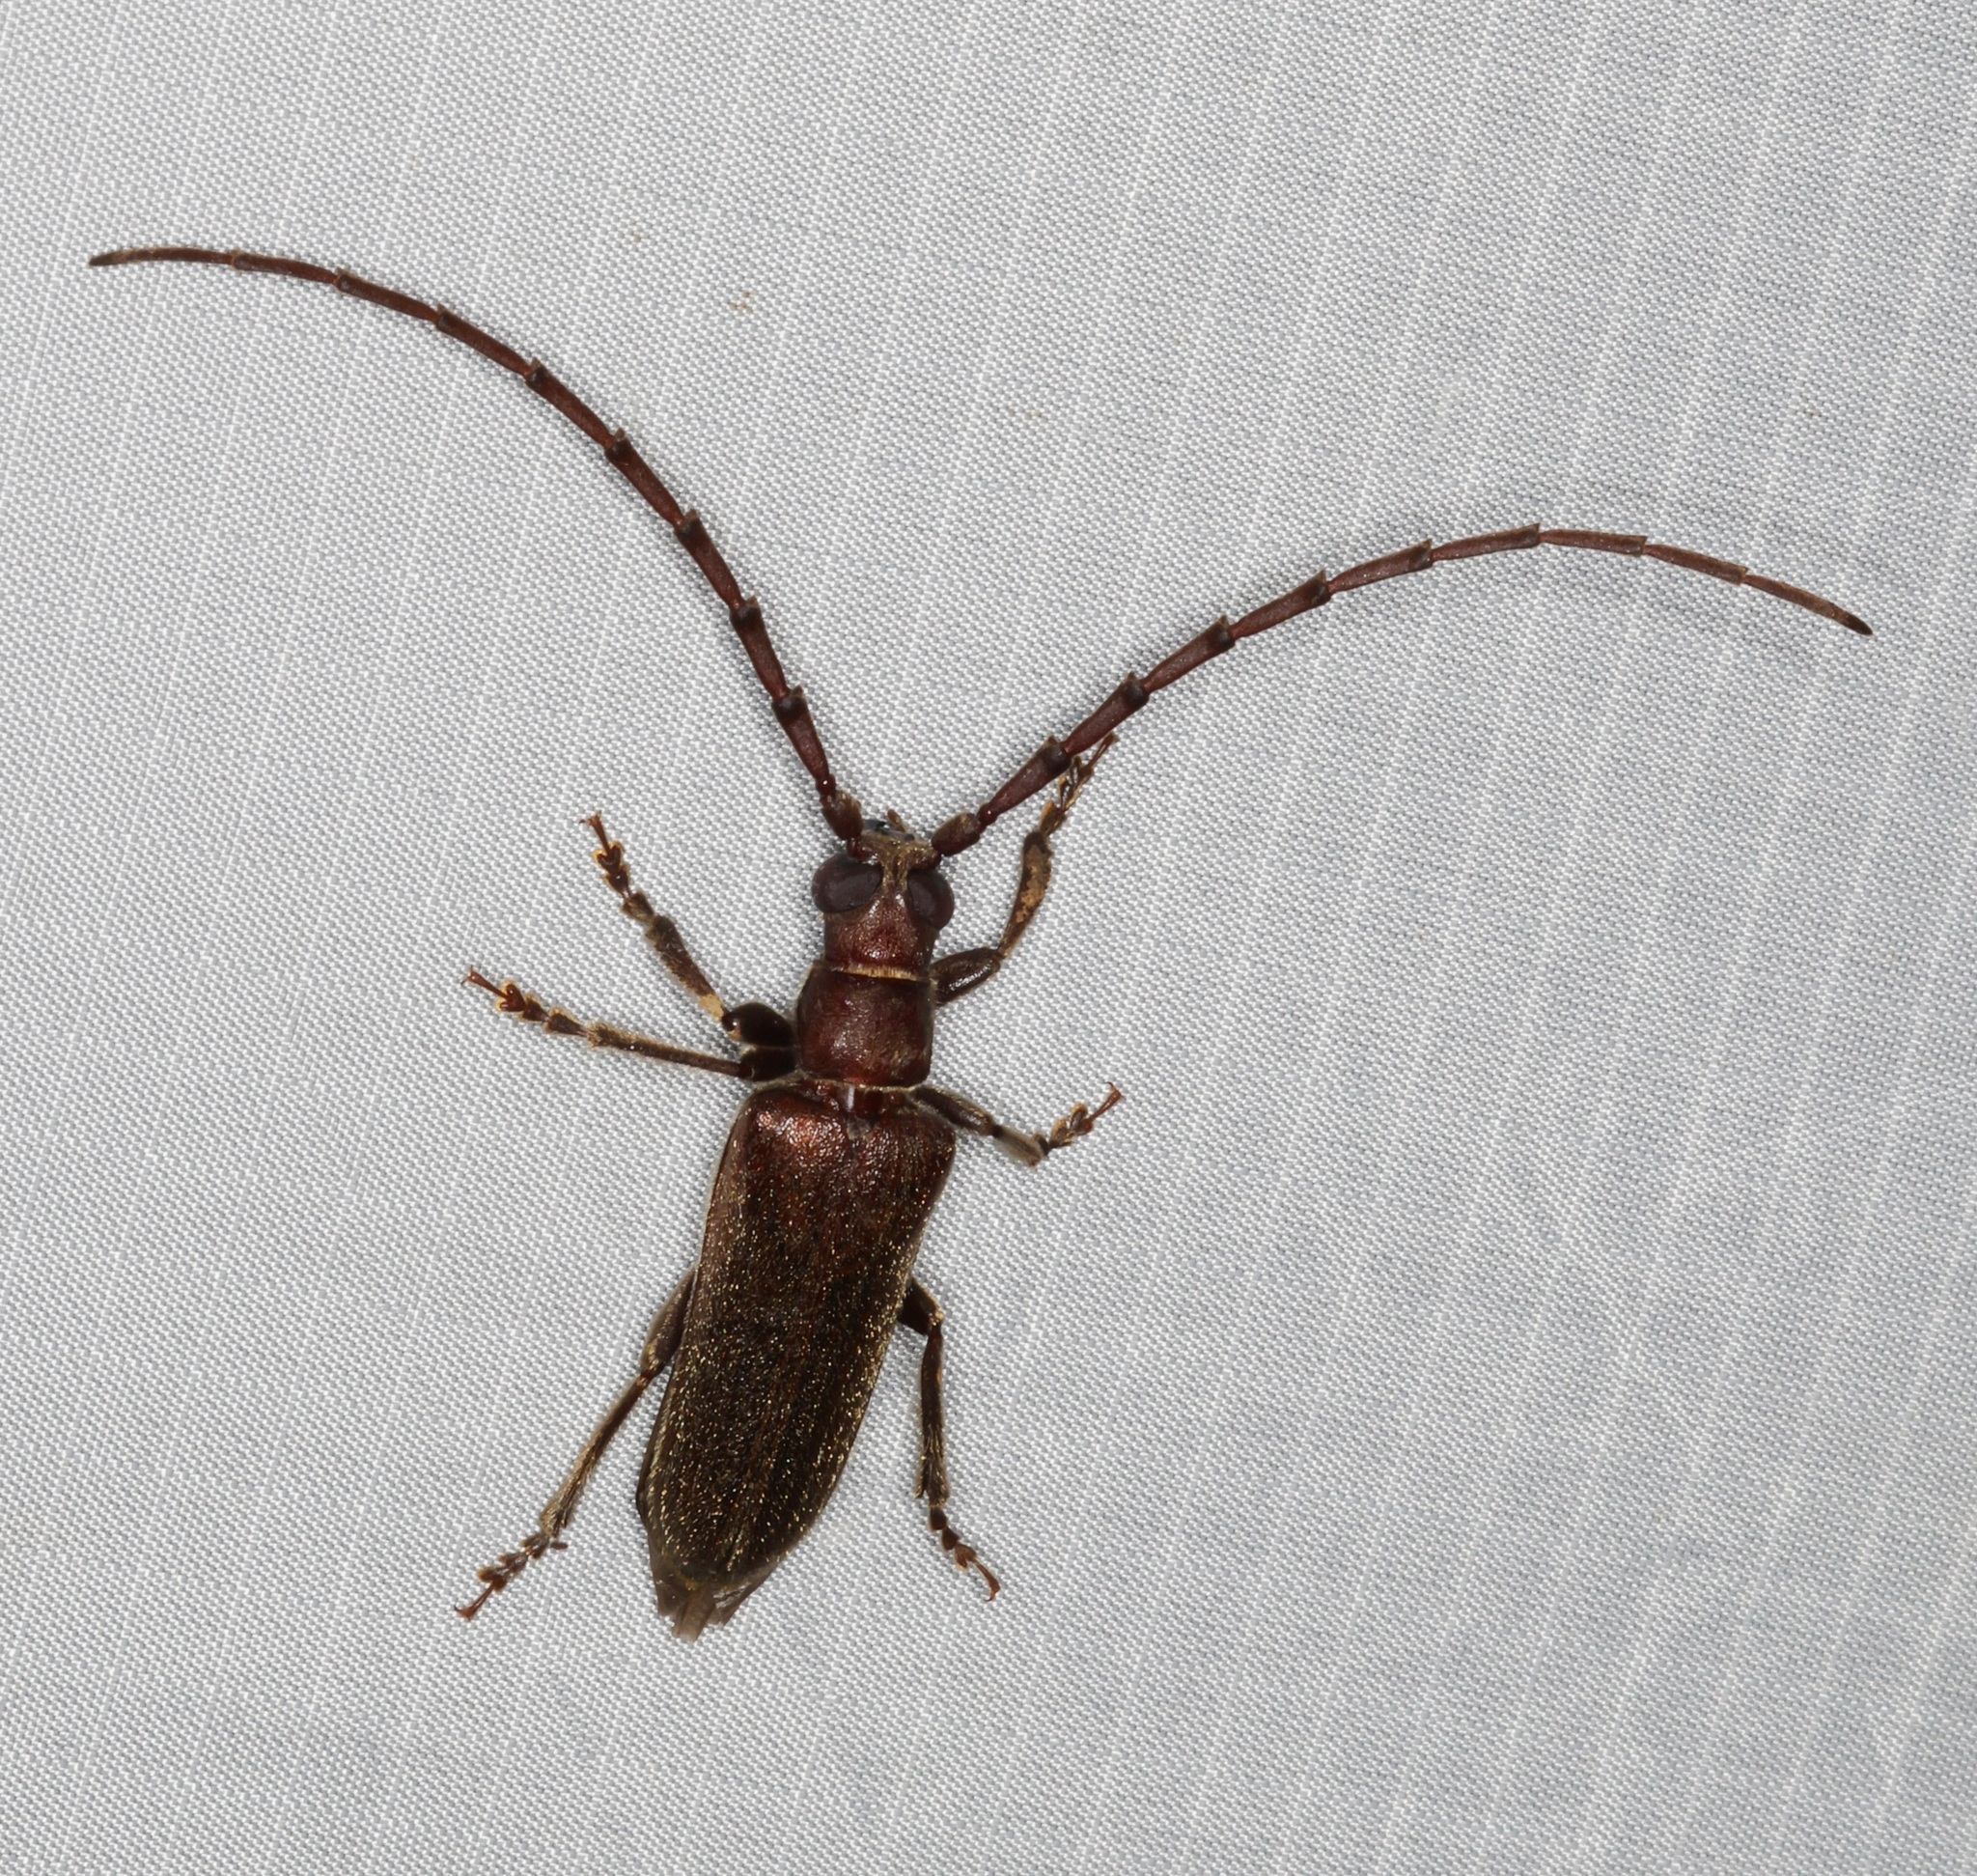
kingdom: Animalia
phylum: Arthropoda
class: Insecta
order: Coleoptera
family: Cerambycidae
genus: Philus
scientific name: Philus antennatus
